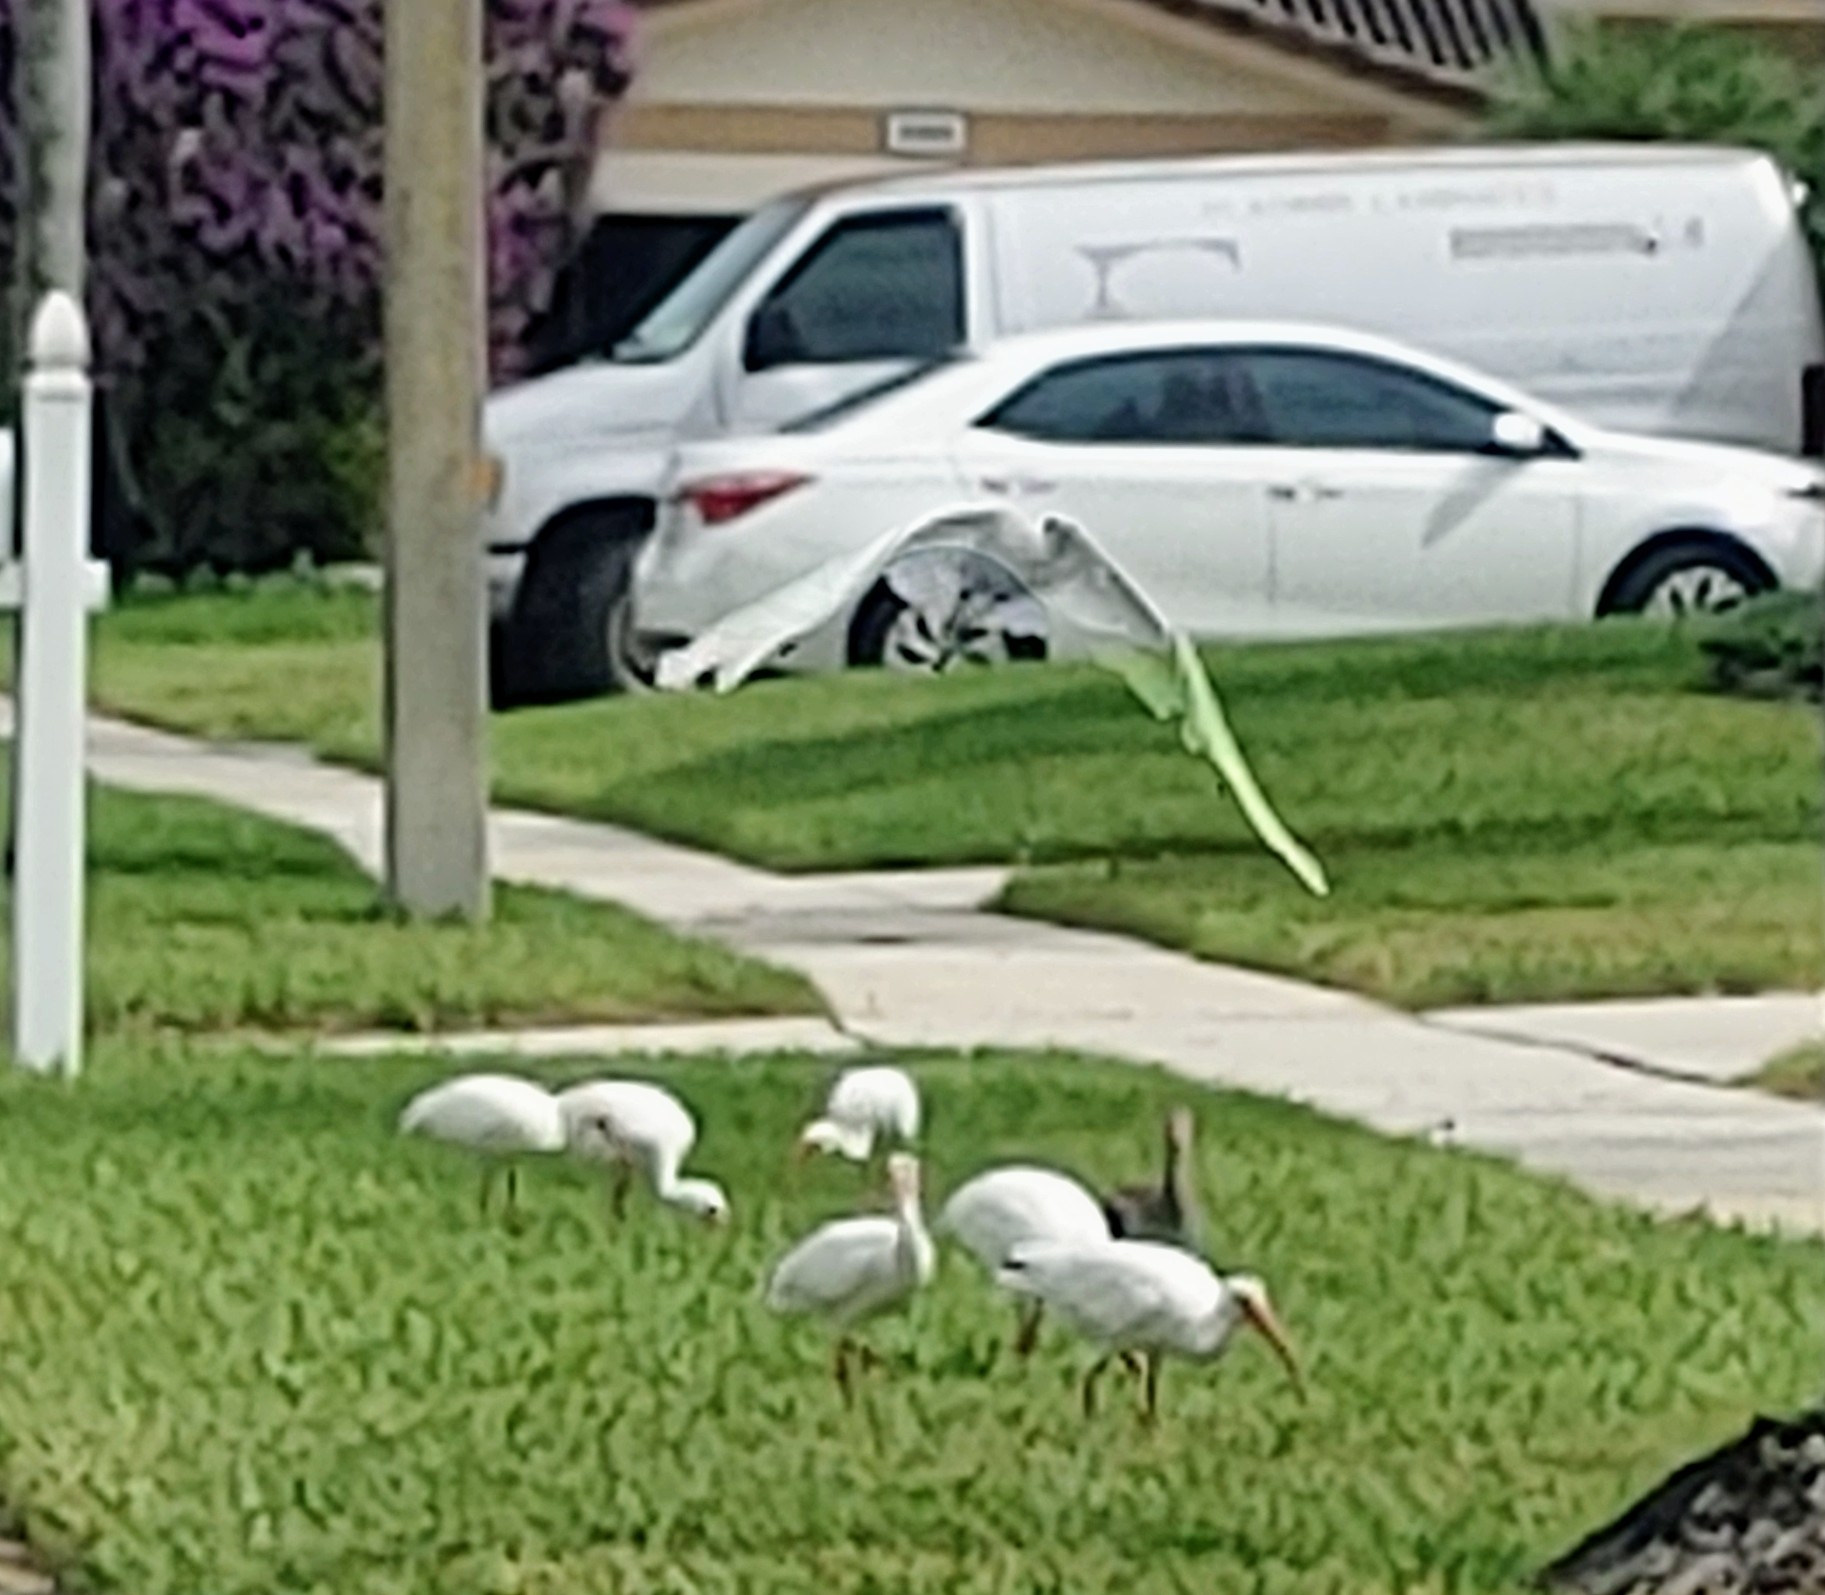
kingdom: Animalia
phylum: Chordata
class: Aves
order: Pelecaniformes
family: Threskiornithidae
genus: Eudocimus
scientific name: Eudocimus albus
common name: White ibis
